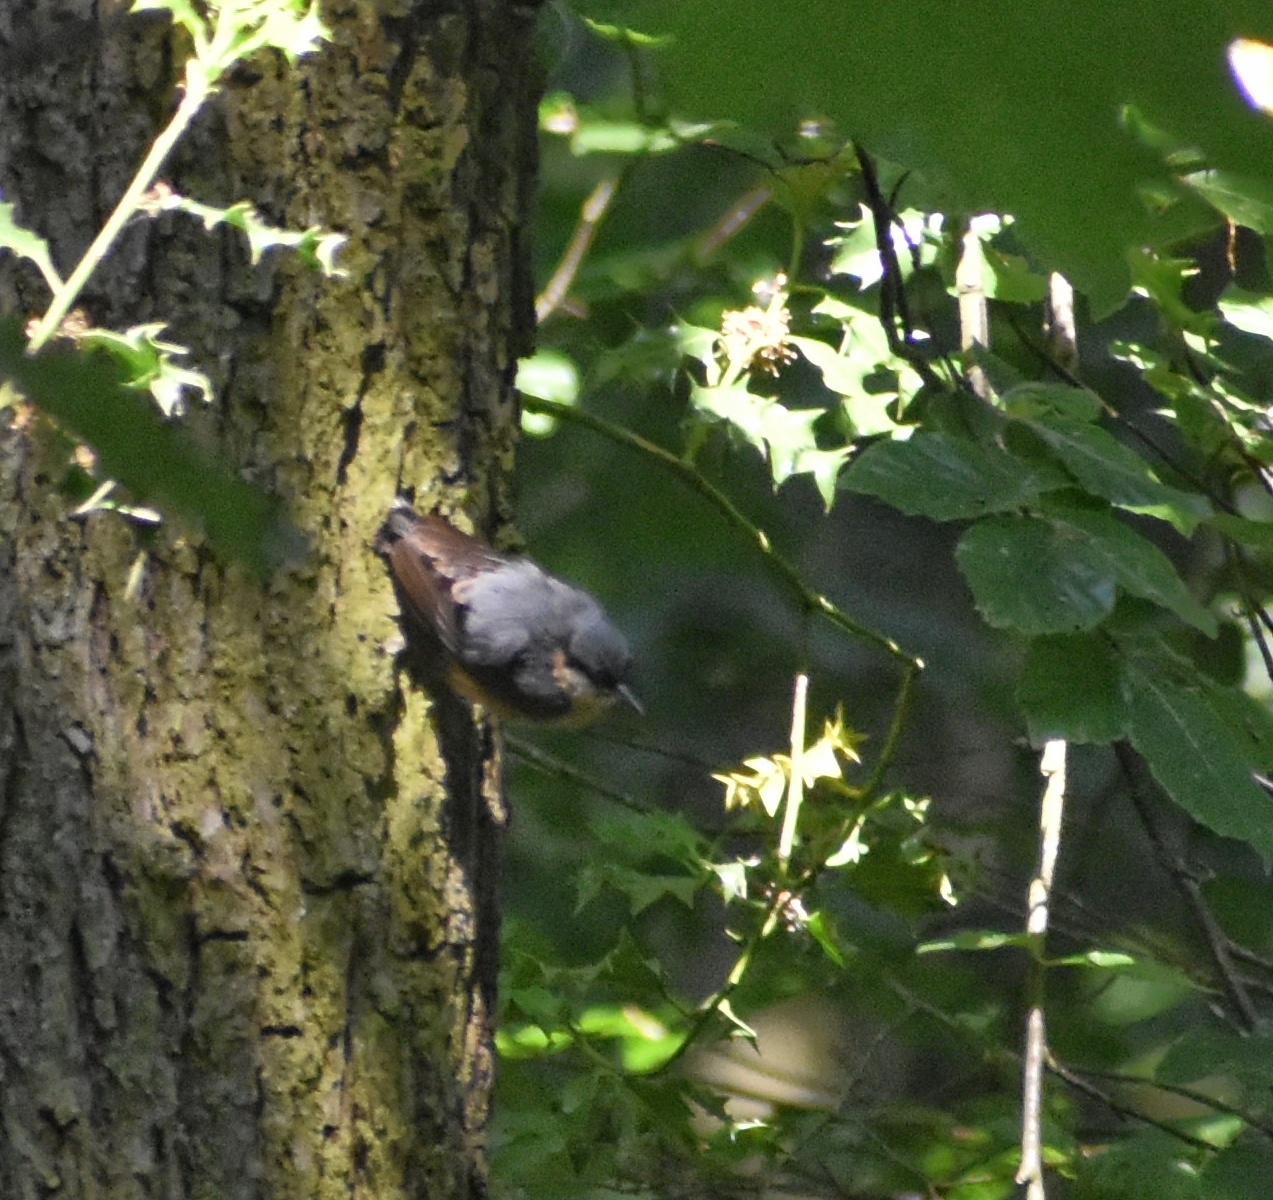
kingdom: Animalia
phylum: Chordata
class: Aves
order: Passeriformes
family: Sittidae
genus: Sitta
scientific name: Sitta europaea
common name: Eurasian nuthatch
